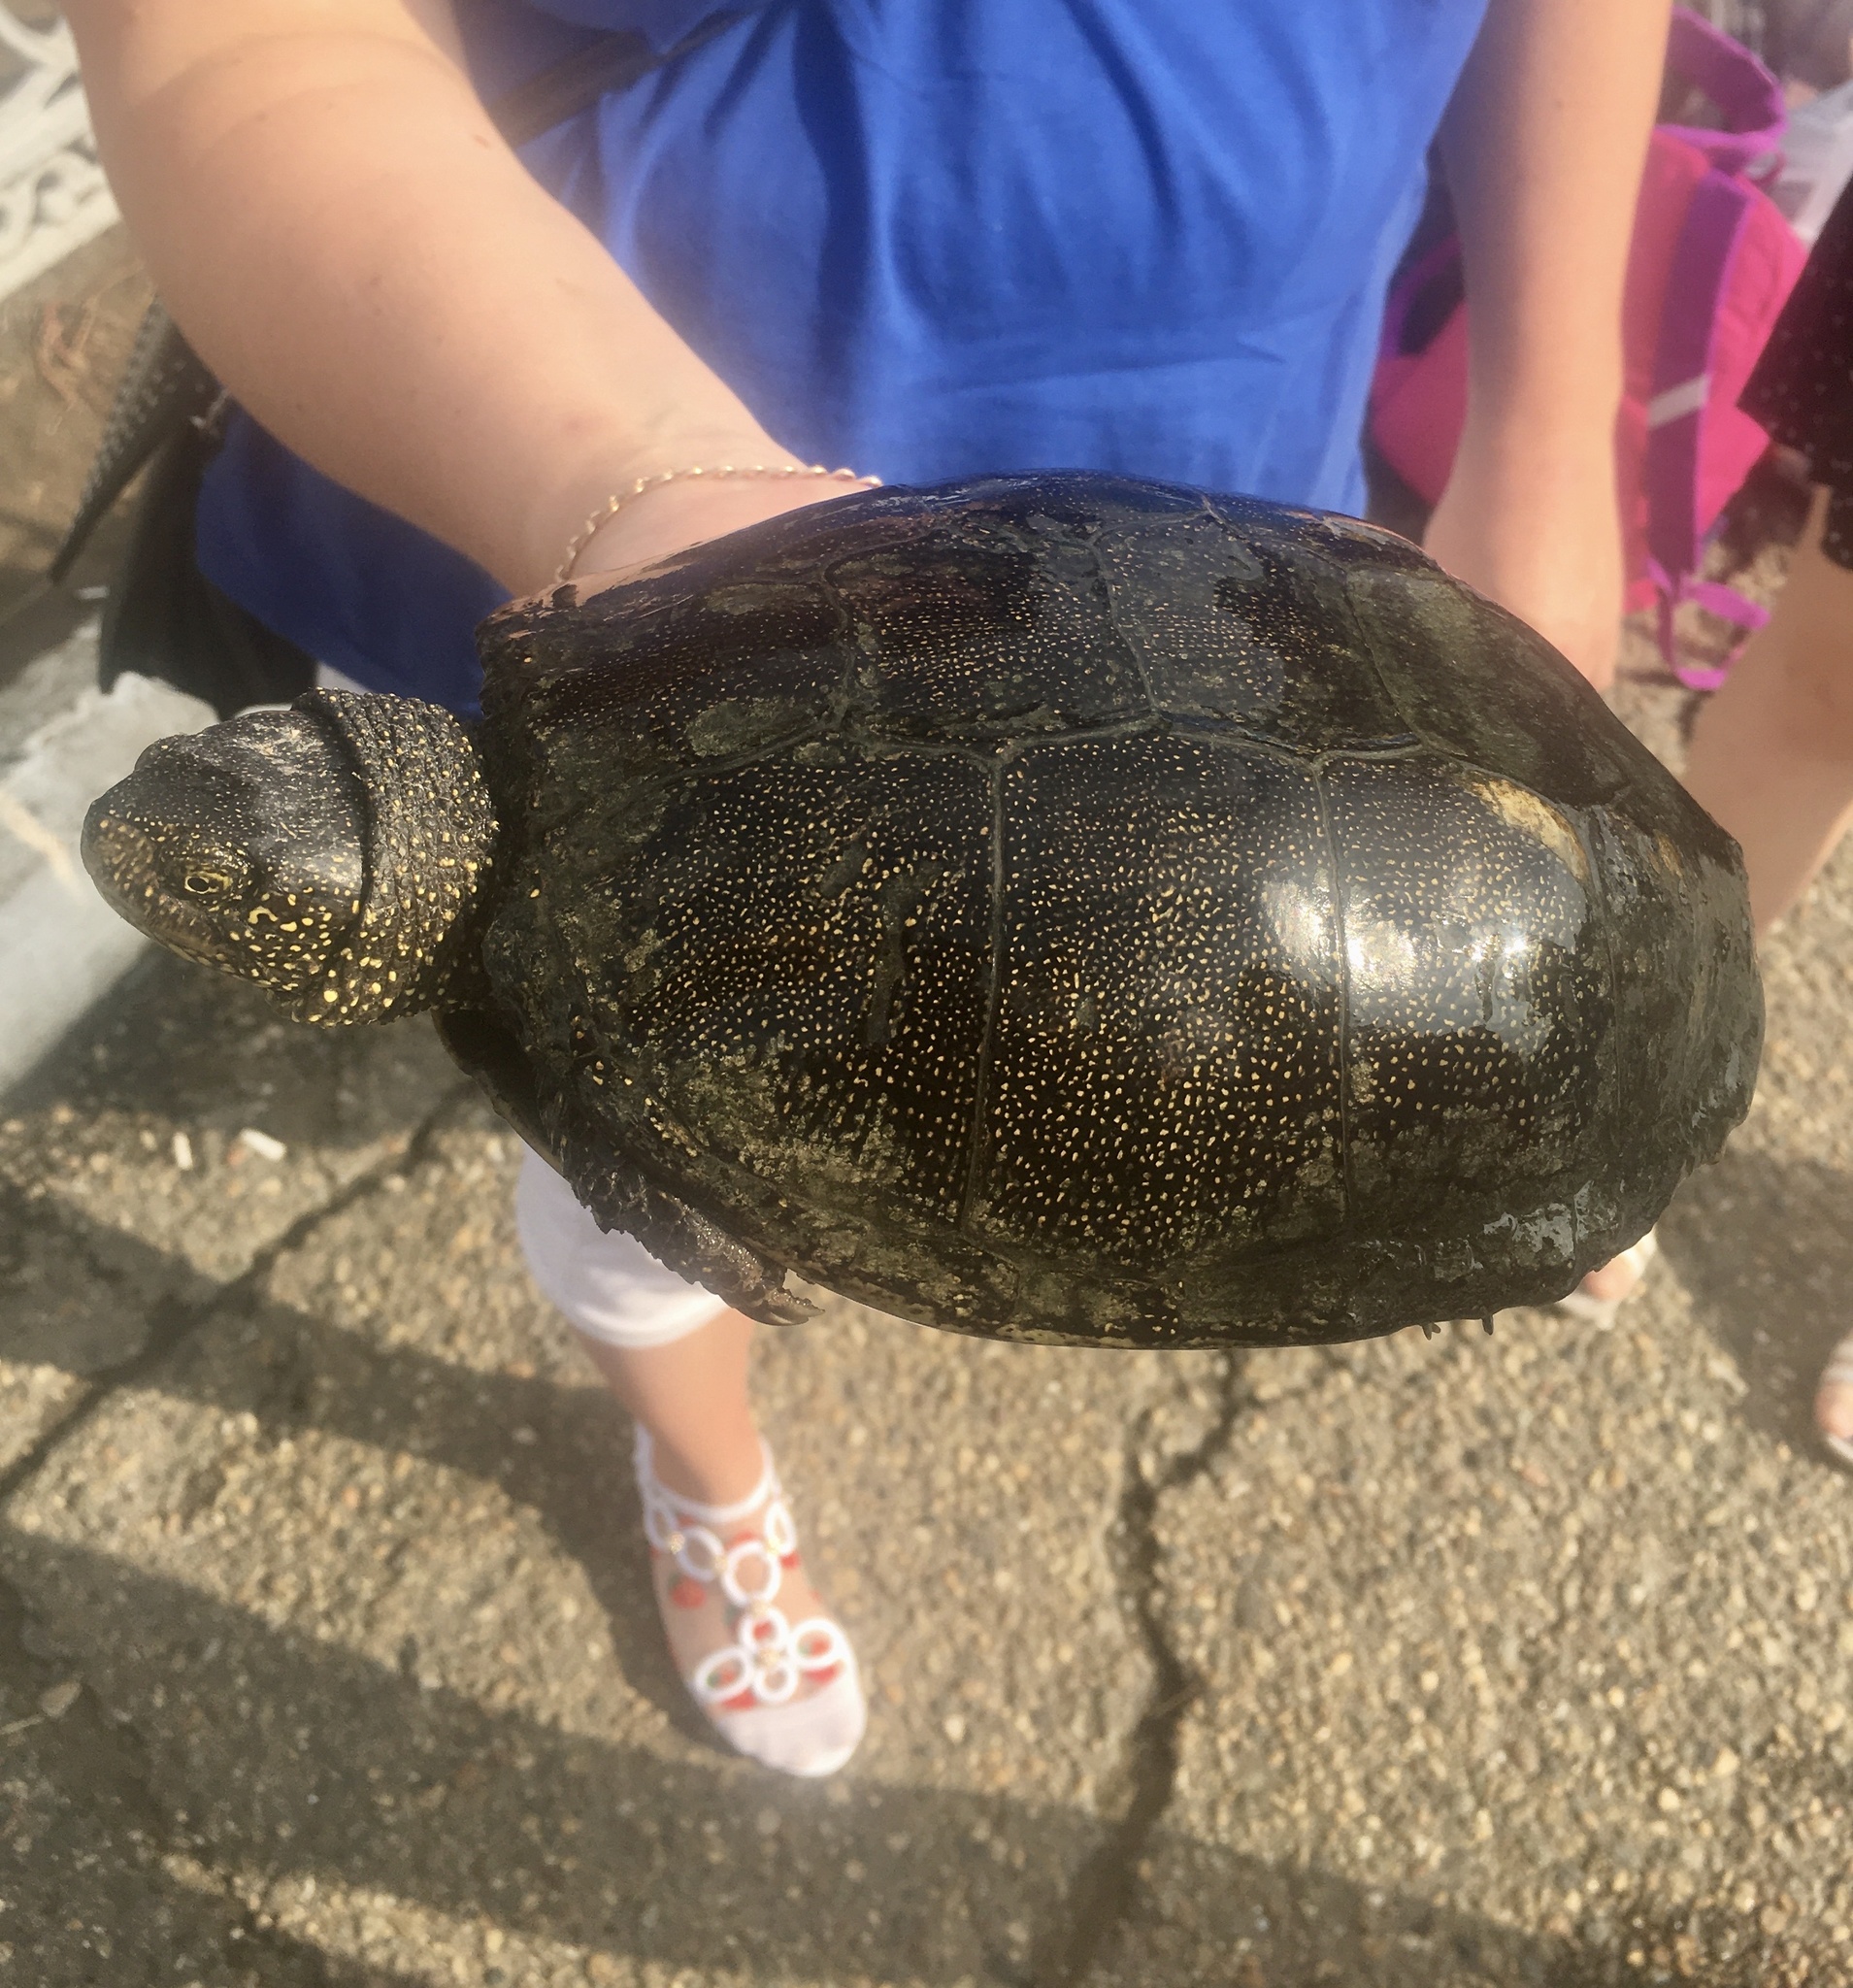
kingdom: Animalia
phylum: Chordata
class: Testudines
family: Emydidae
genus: Emys
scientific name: Emys orbicularis
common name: European pond turtle
